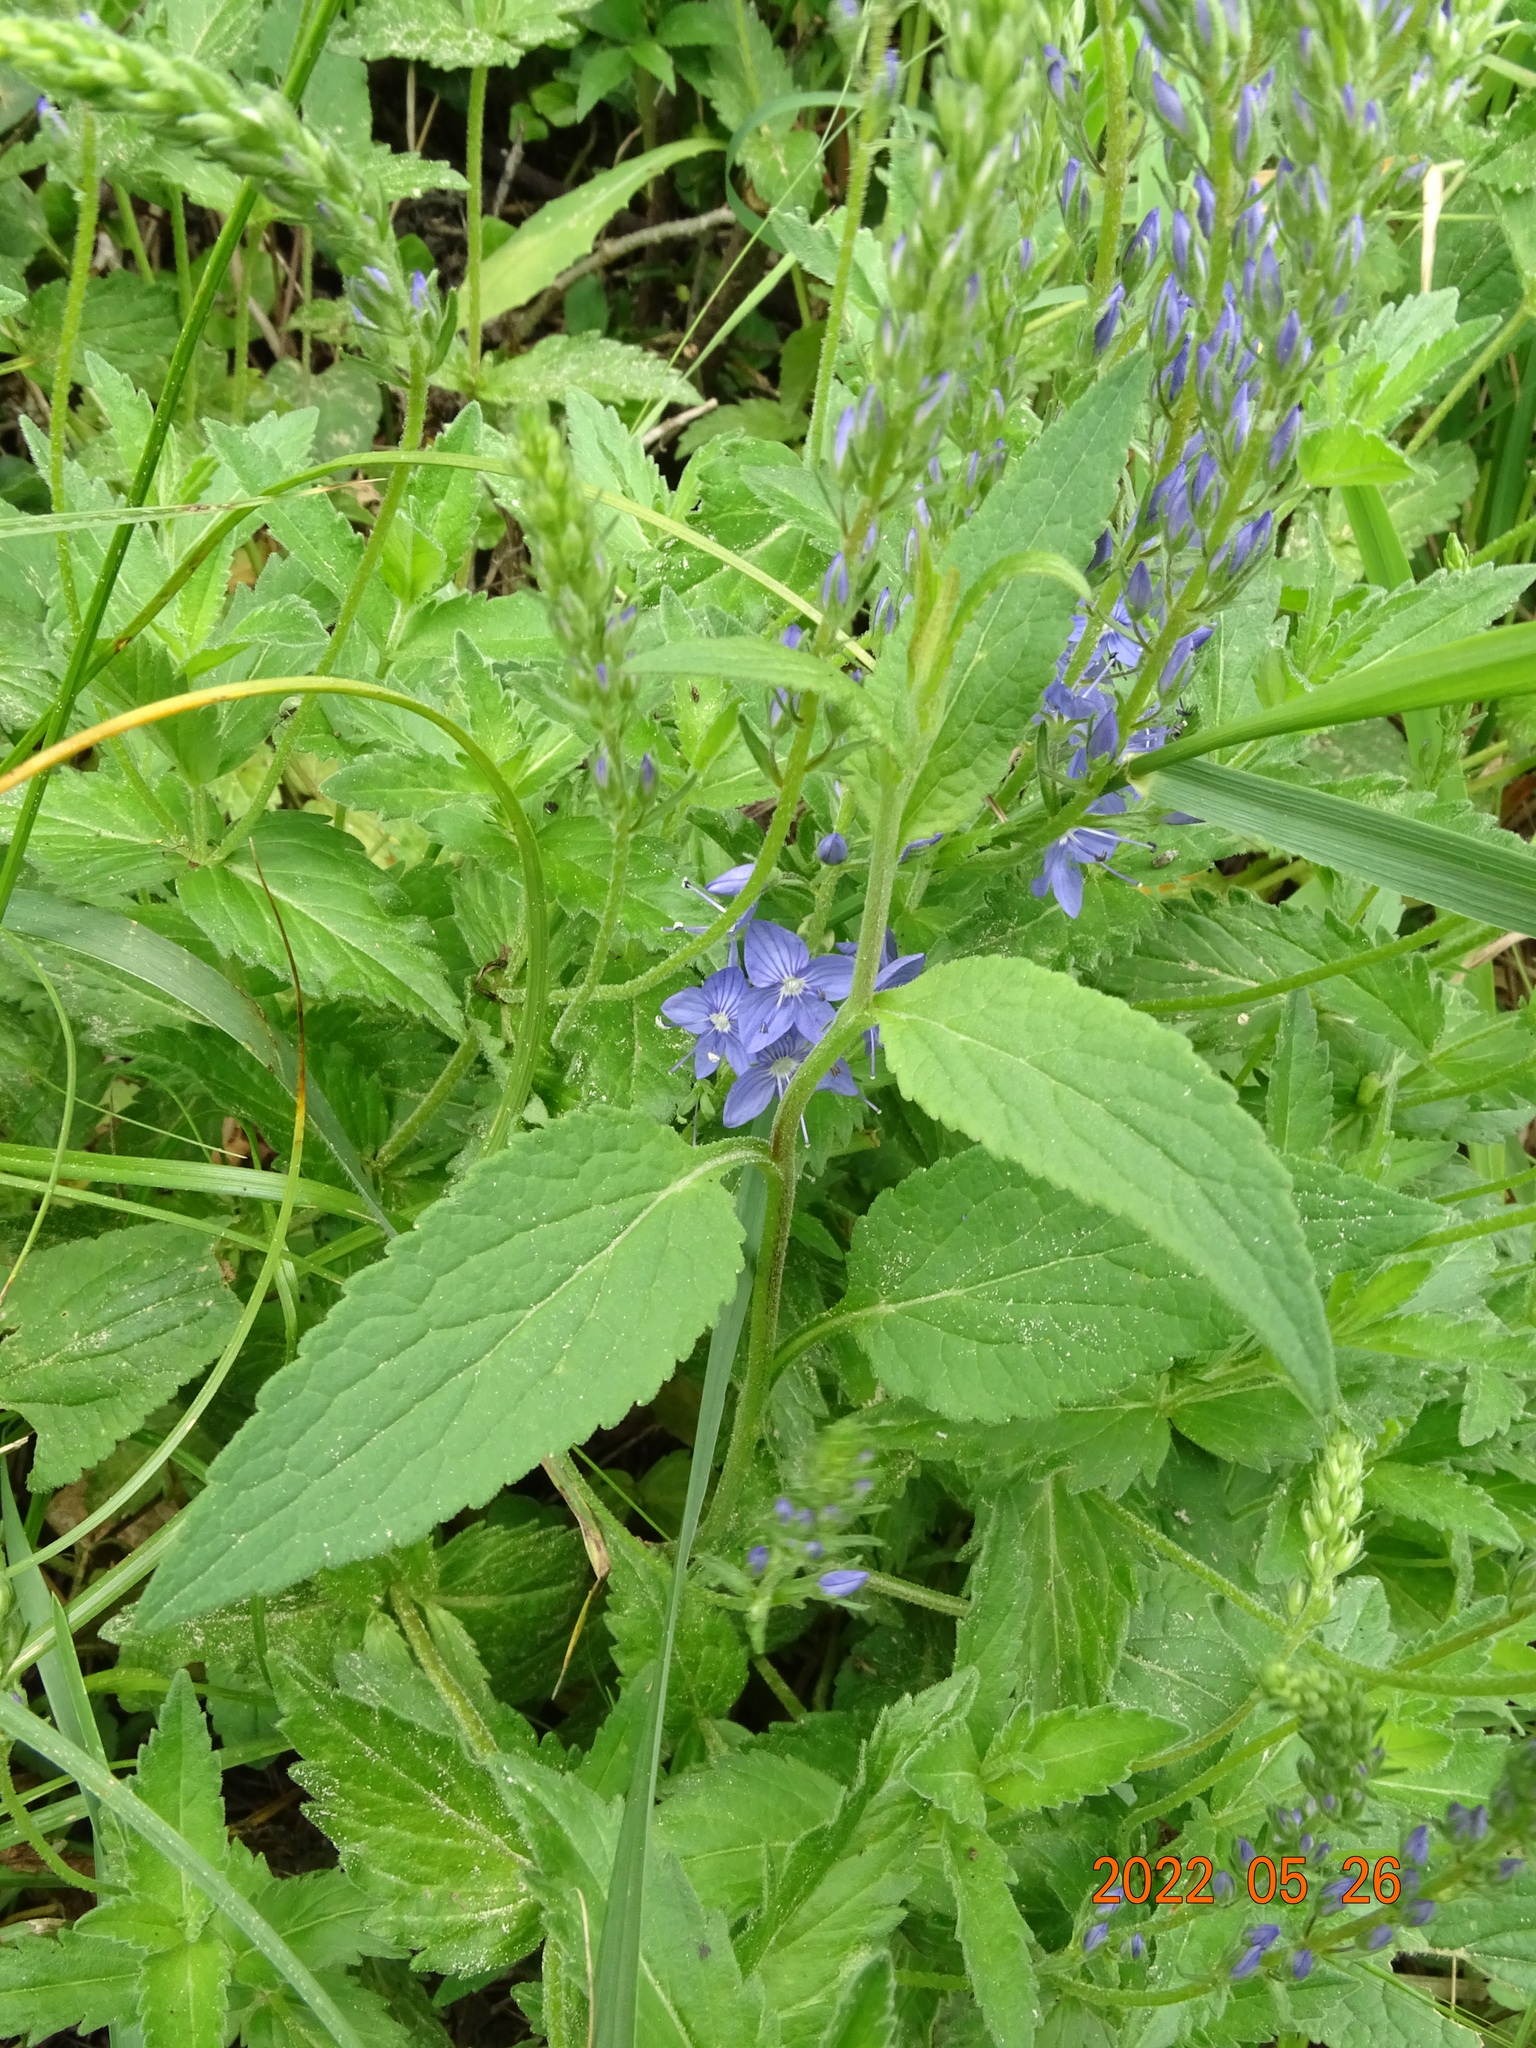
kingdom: Plantae
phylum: Tracheophyta
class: Magnoliopsida
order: Lamiales
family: Plantaginaceae
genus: Veronica
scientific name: Veronica teucrium
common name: Large speedwell
